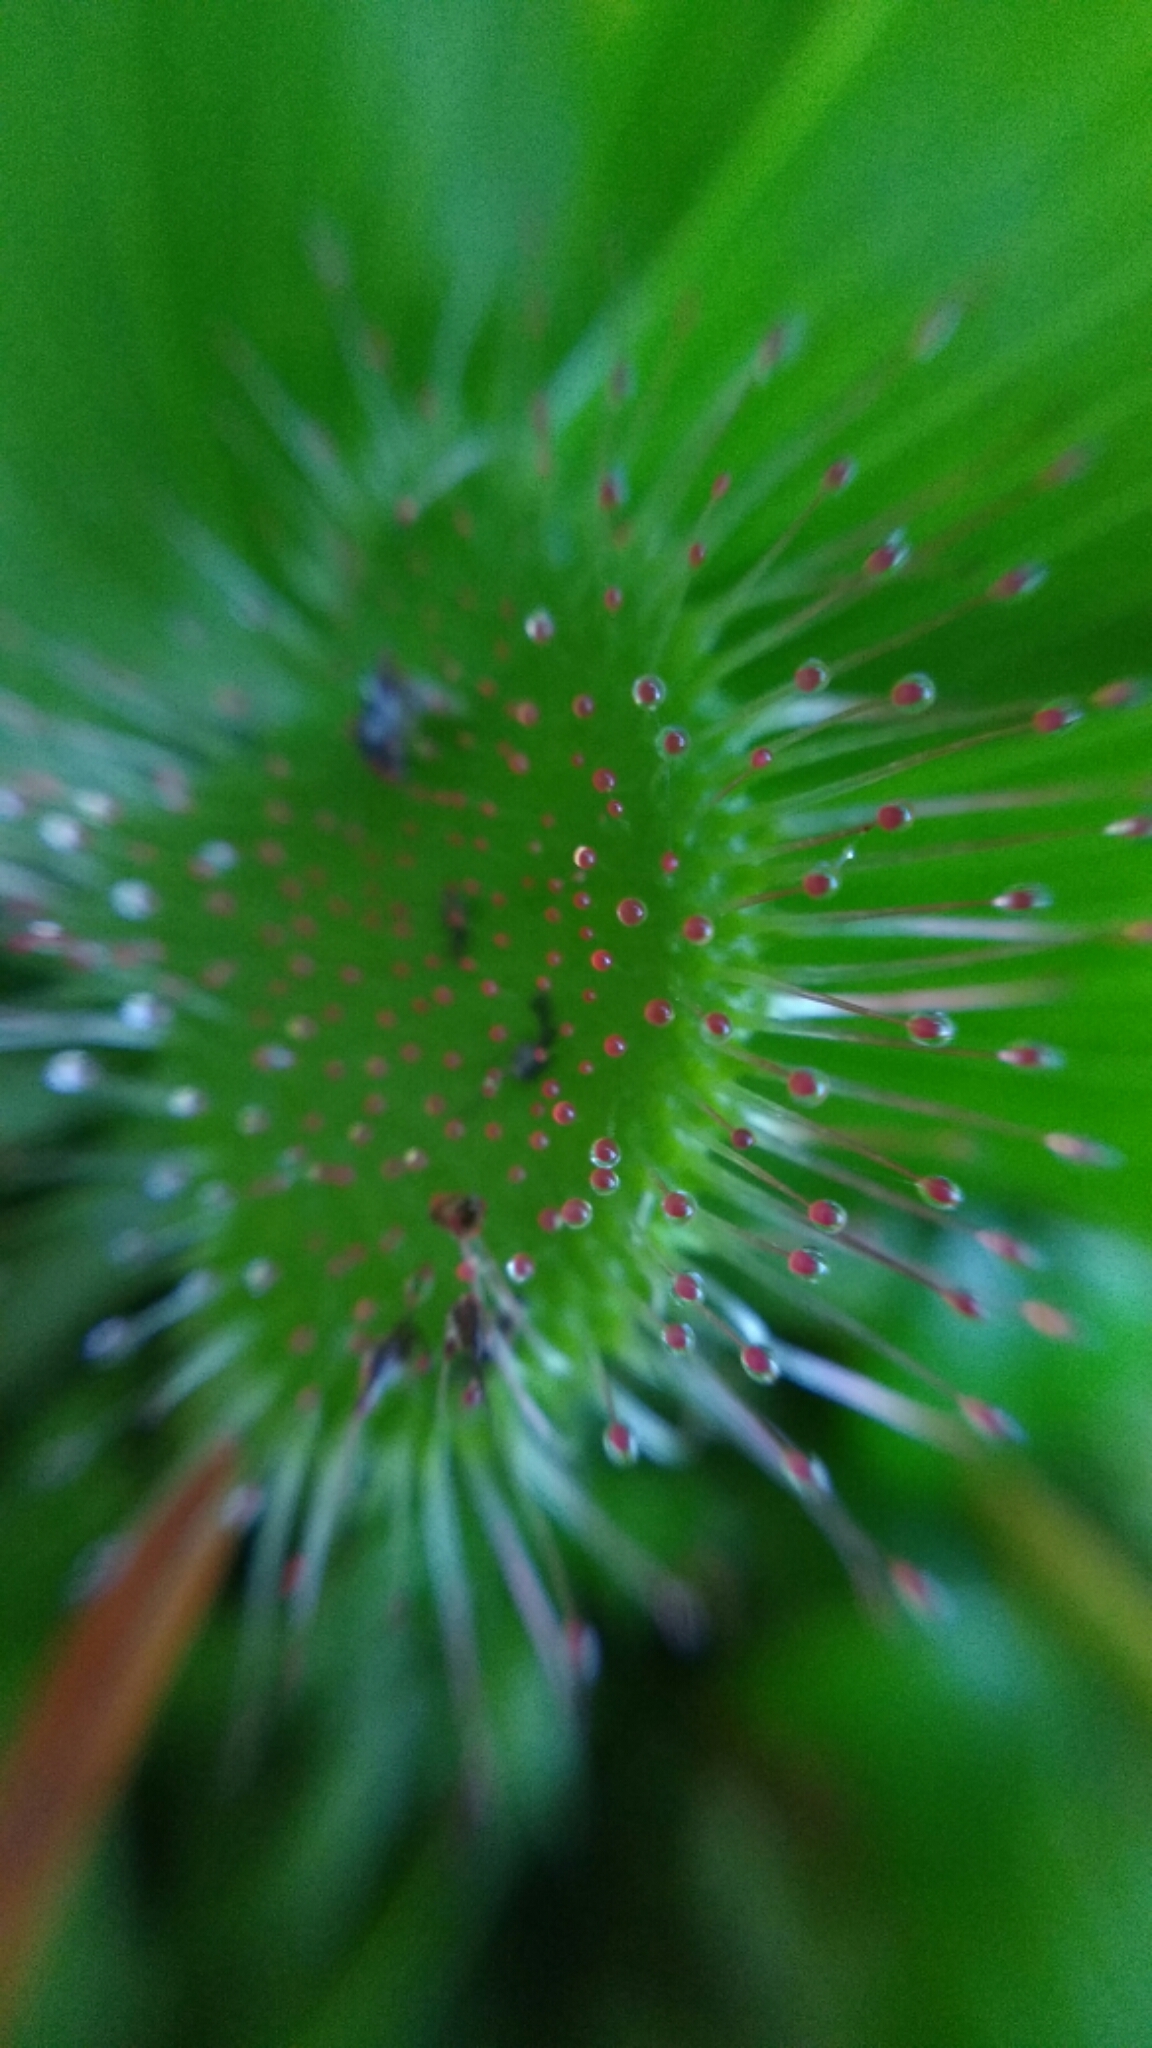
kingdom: Plantae
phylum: Tracheophyta
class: Magnoliopsida
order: Caryophyllales
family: Droseraceae
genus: Drosera
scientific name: Drosera rotundifolia
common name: Round-leaved sundew
